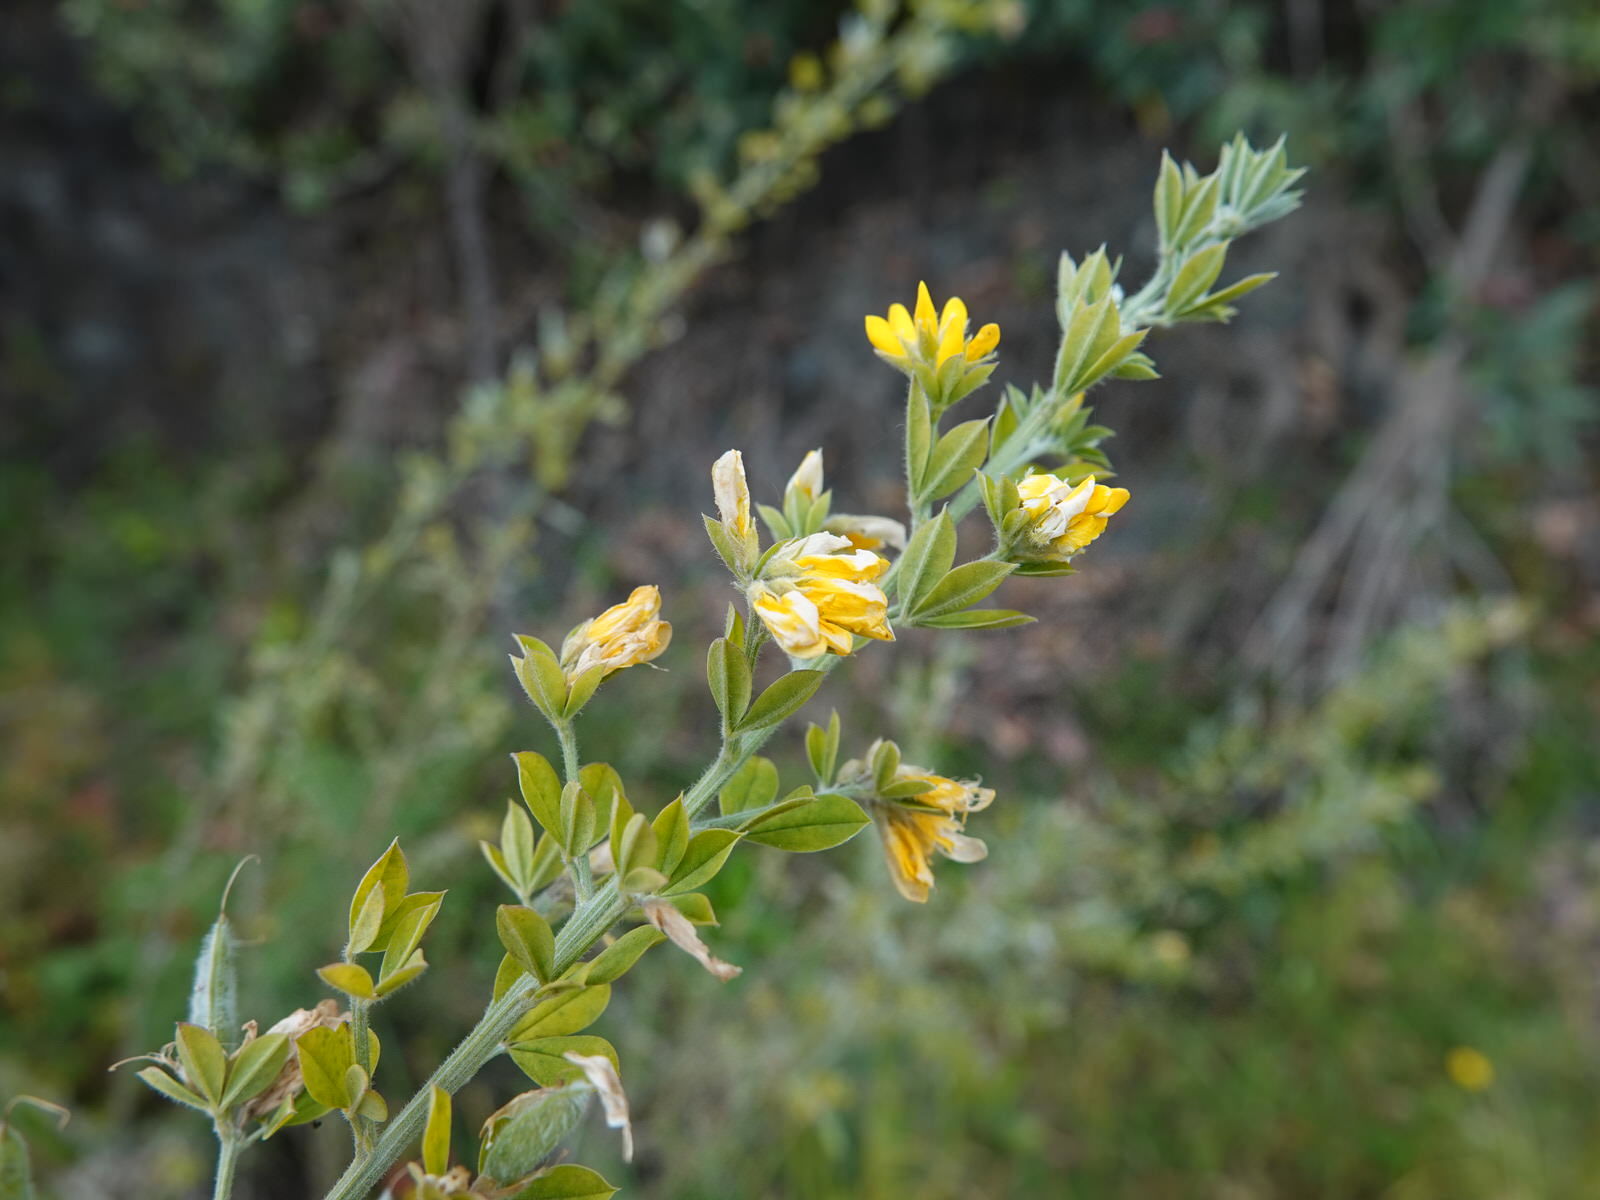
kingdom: Plantae
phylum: Tracheophyta
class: Magnoliopsida
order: Fabales
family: Fabaceae
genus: Genista
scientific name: Genista monspessulana
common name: Montpellier broom
